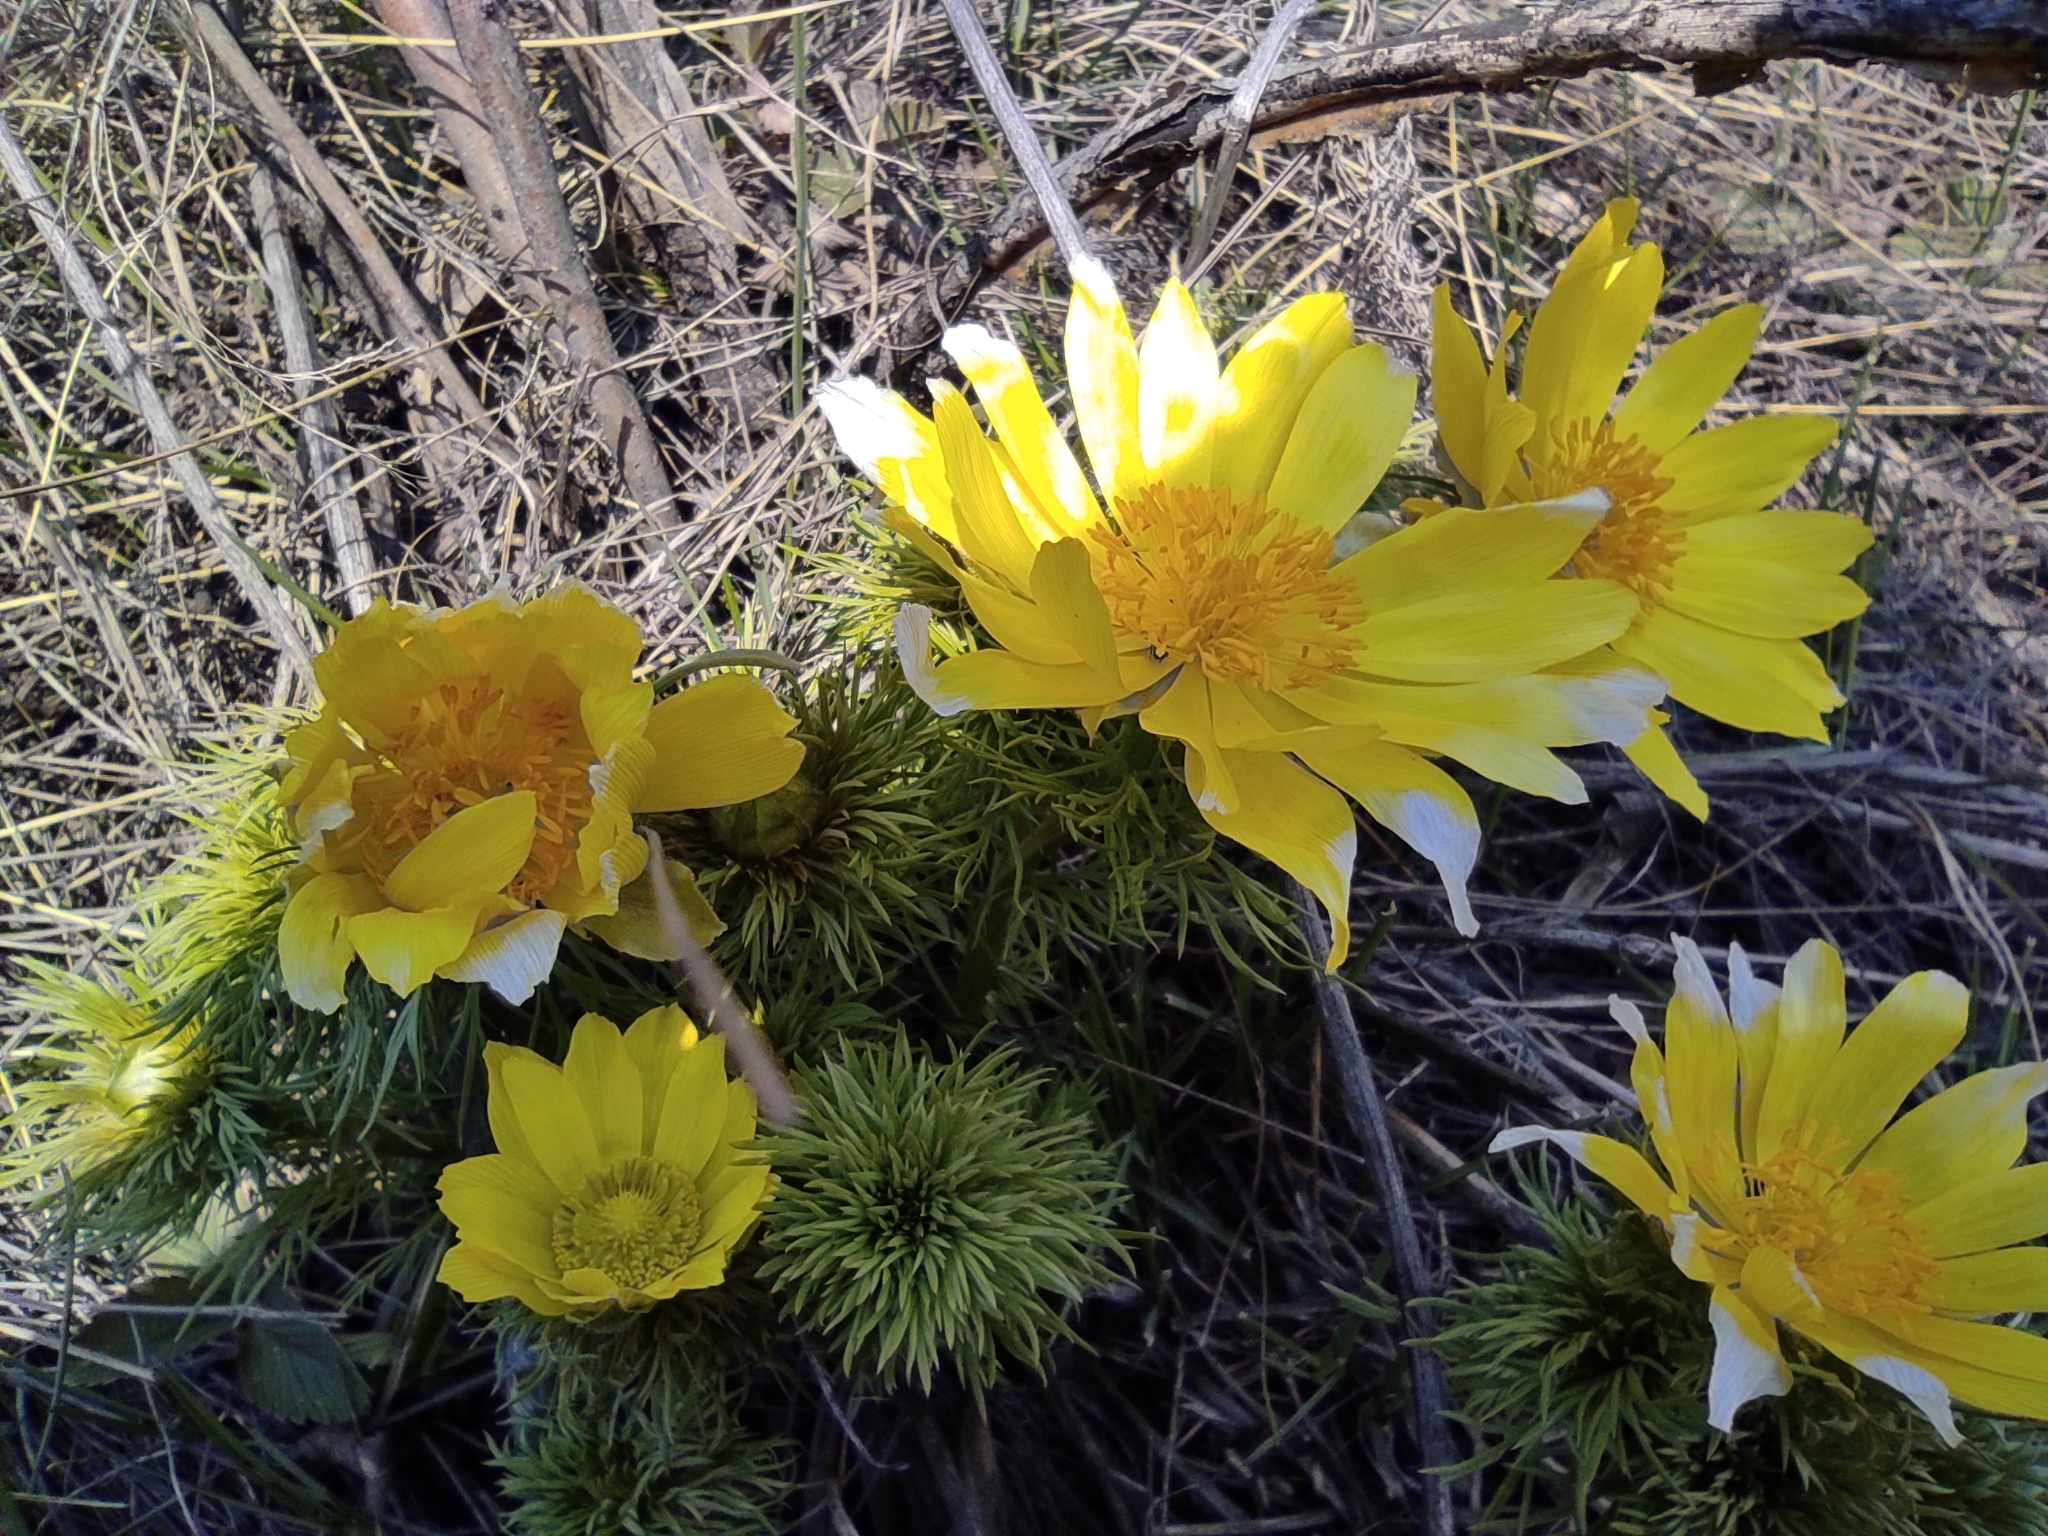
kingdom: Plantae
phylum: Tracheophyta
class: Magnoliopsida
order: Ranunculales
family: Ranunculaceae
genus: Adonis
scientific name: Adonis vernalis
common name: Yellow pheasants-eye
